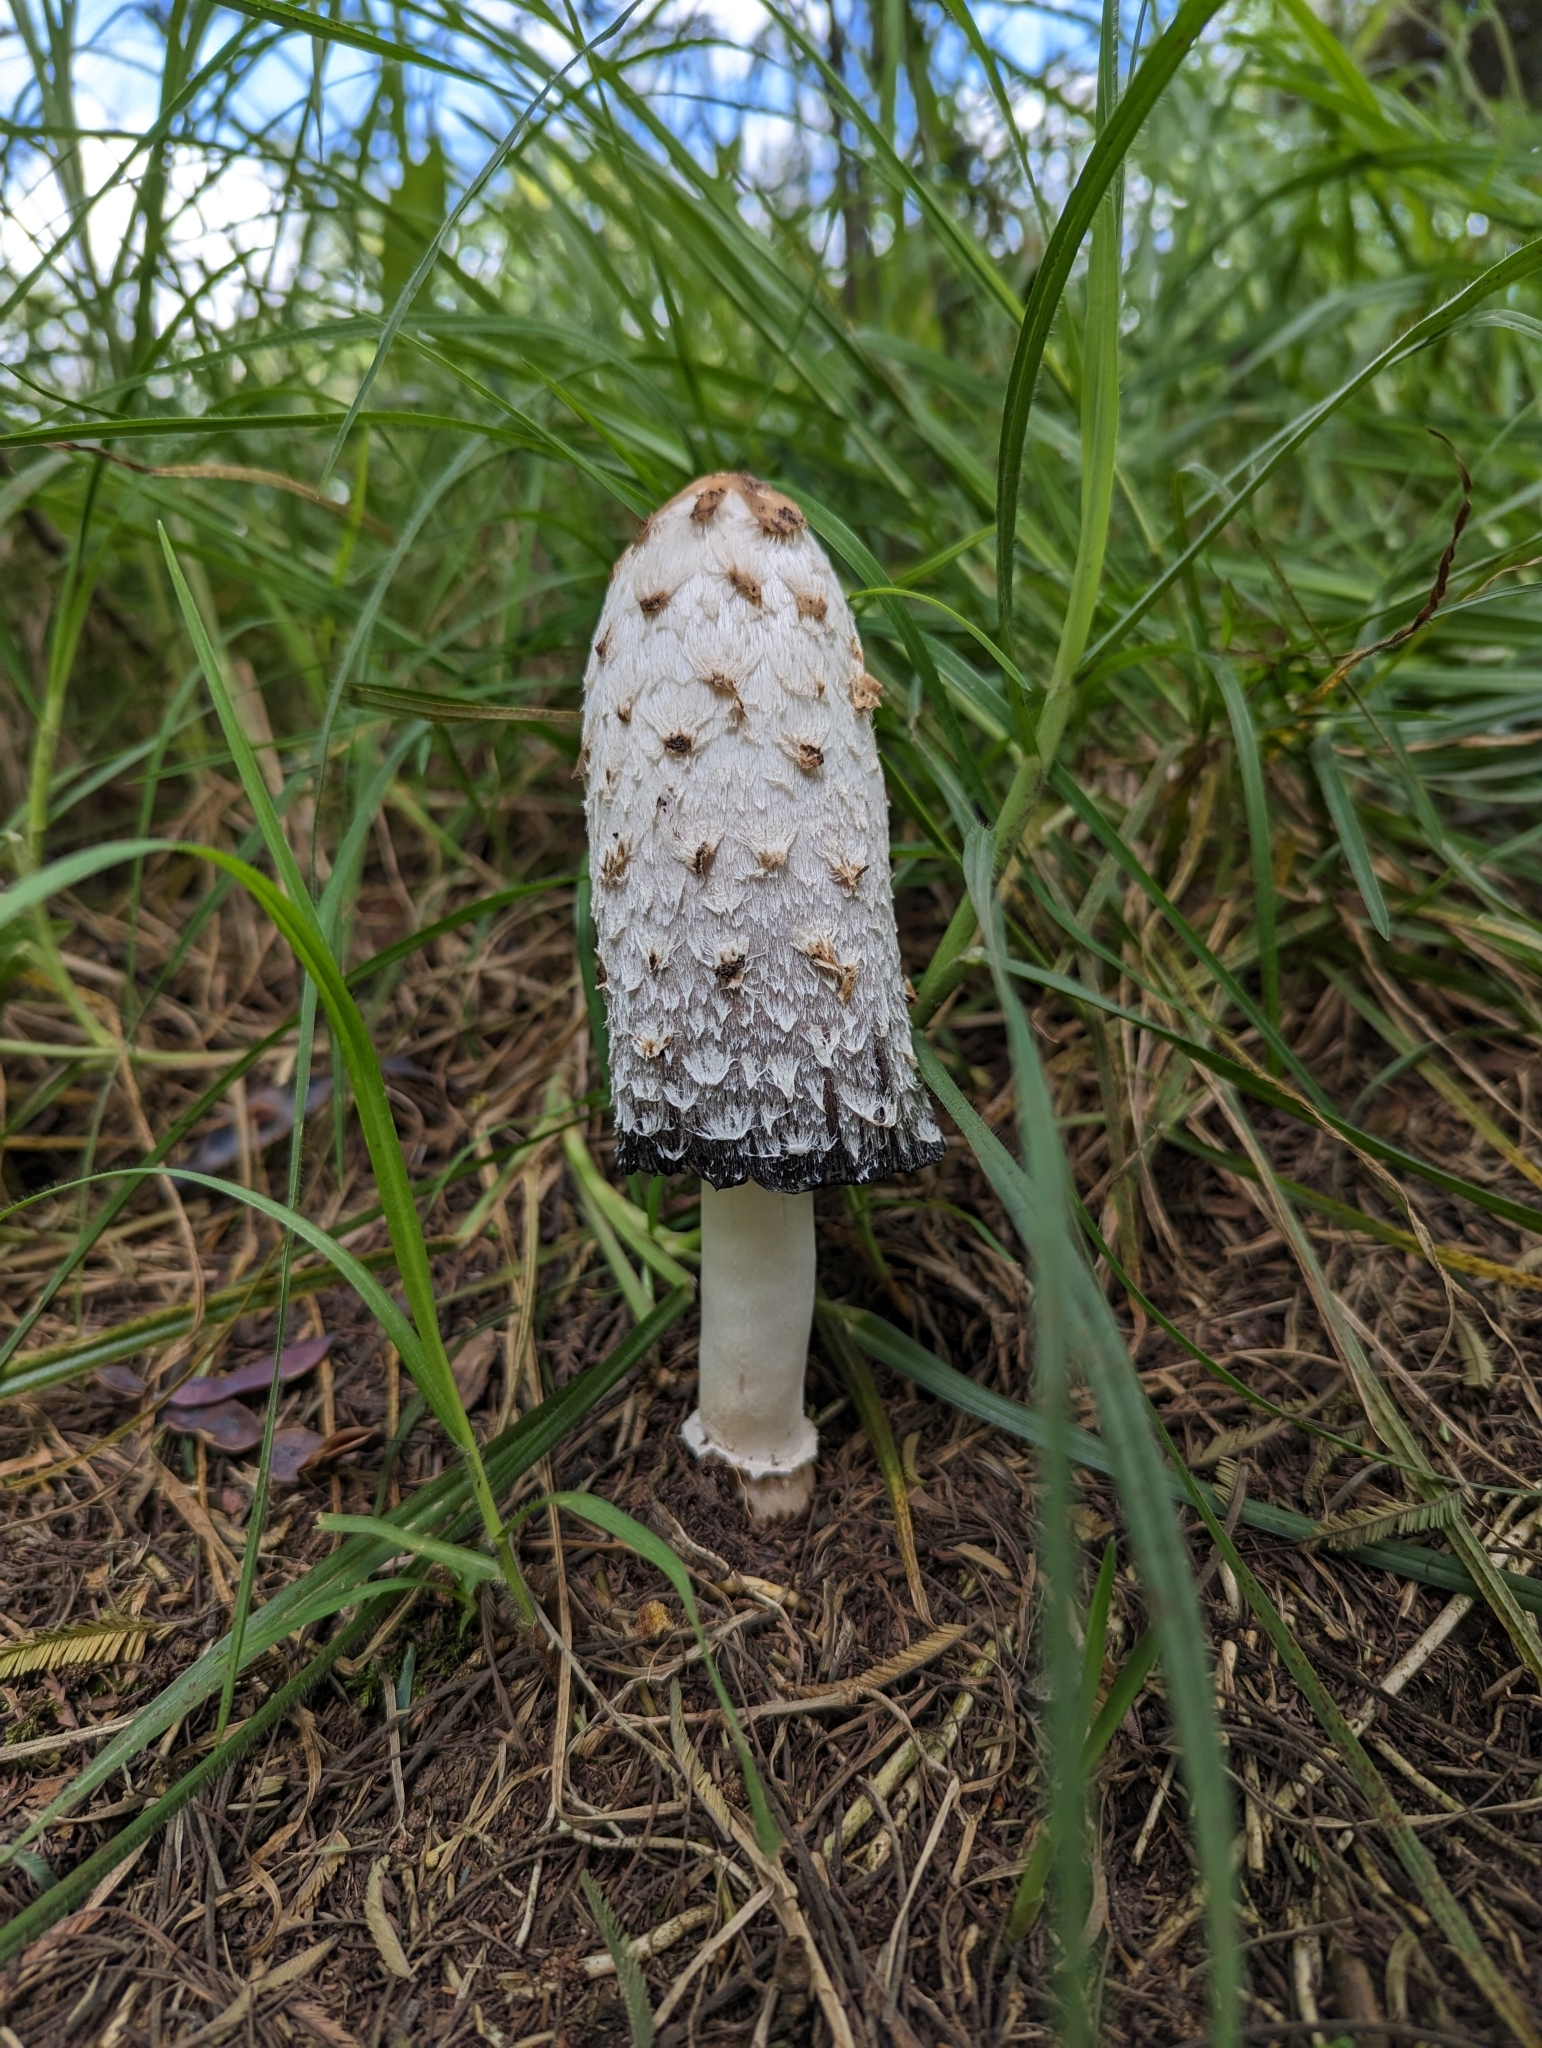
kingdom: Fungi
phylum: Basidiomycota
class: Agaricomycetes
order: Agaricales
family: Agaricaceae
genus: Coprinus
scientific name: Coprinus comatus
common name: Lawyer's wig
